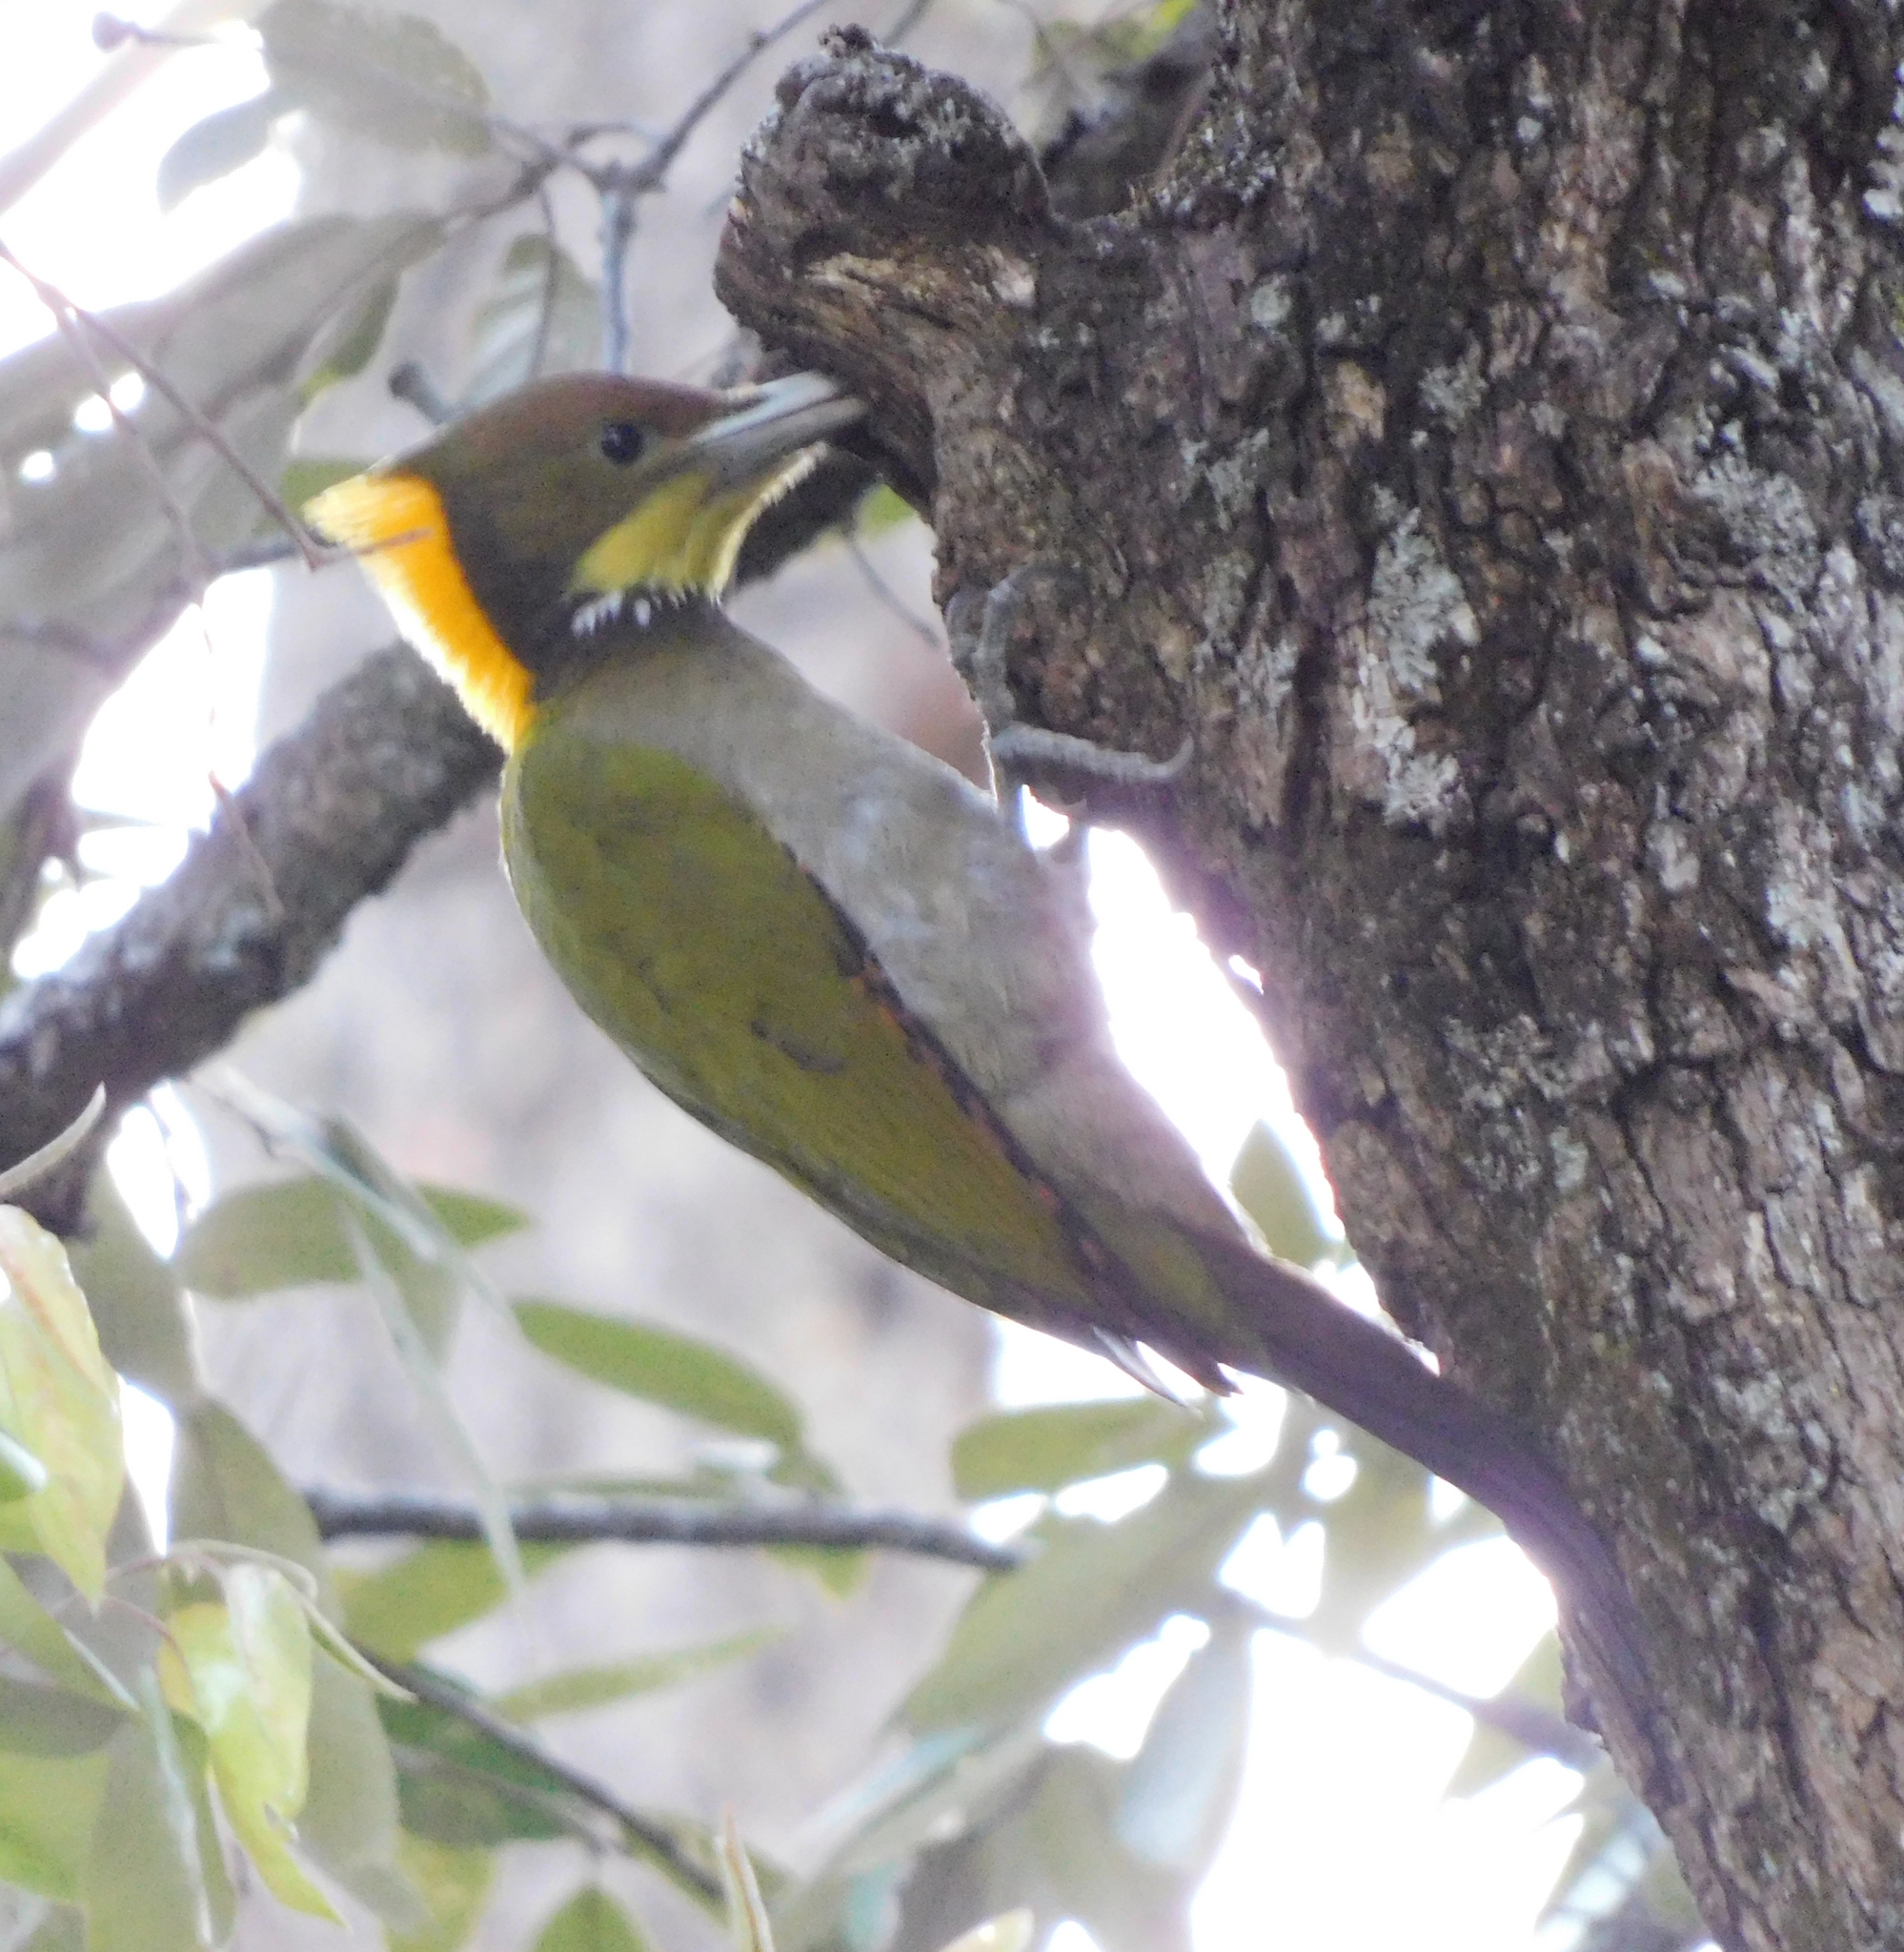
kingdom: Animalia
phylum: Chordata
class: Aves
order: Piciformes
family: Picidae
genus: Chrysophlegma
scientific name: Chrysophlegma flavinucha
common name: Greater yellownape
